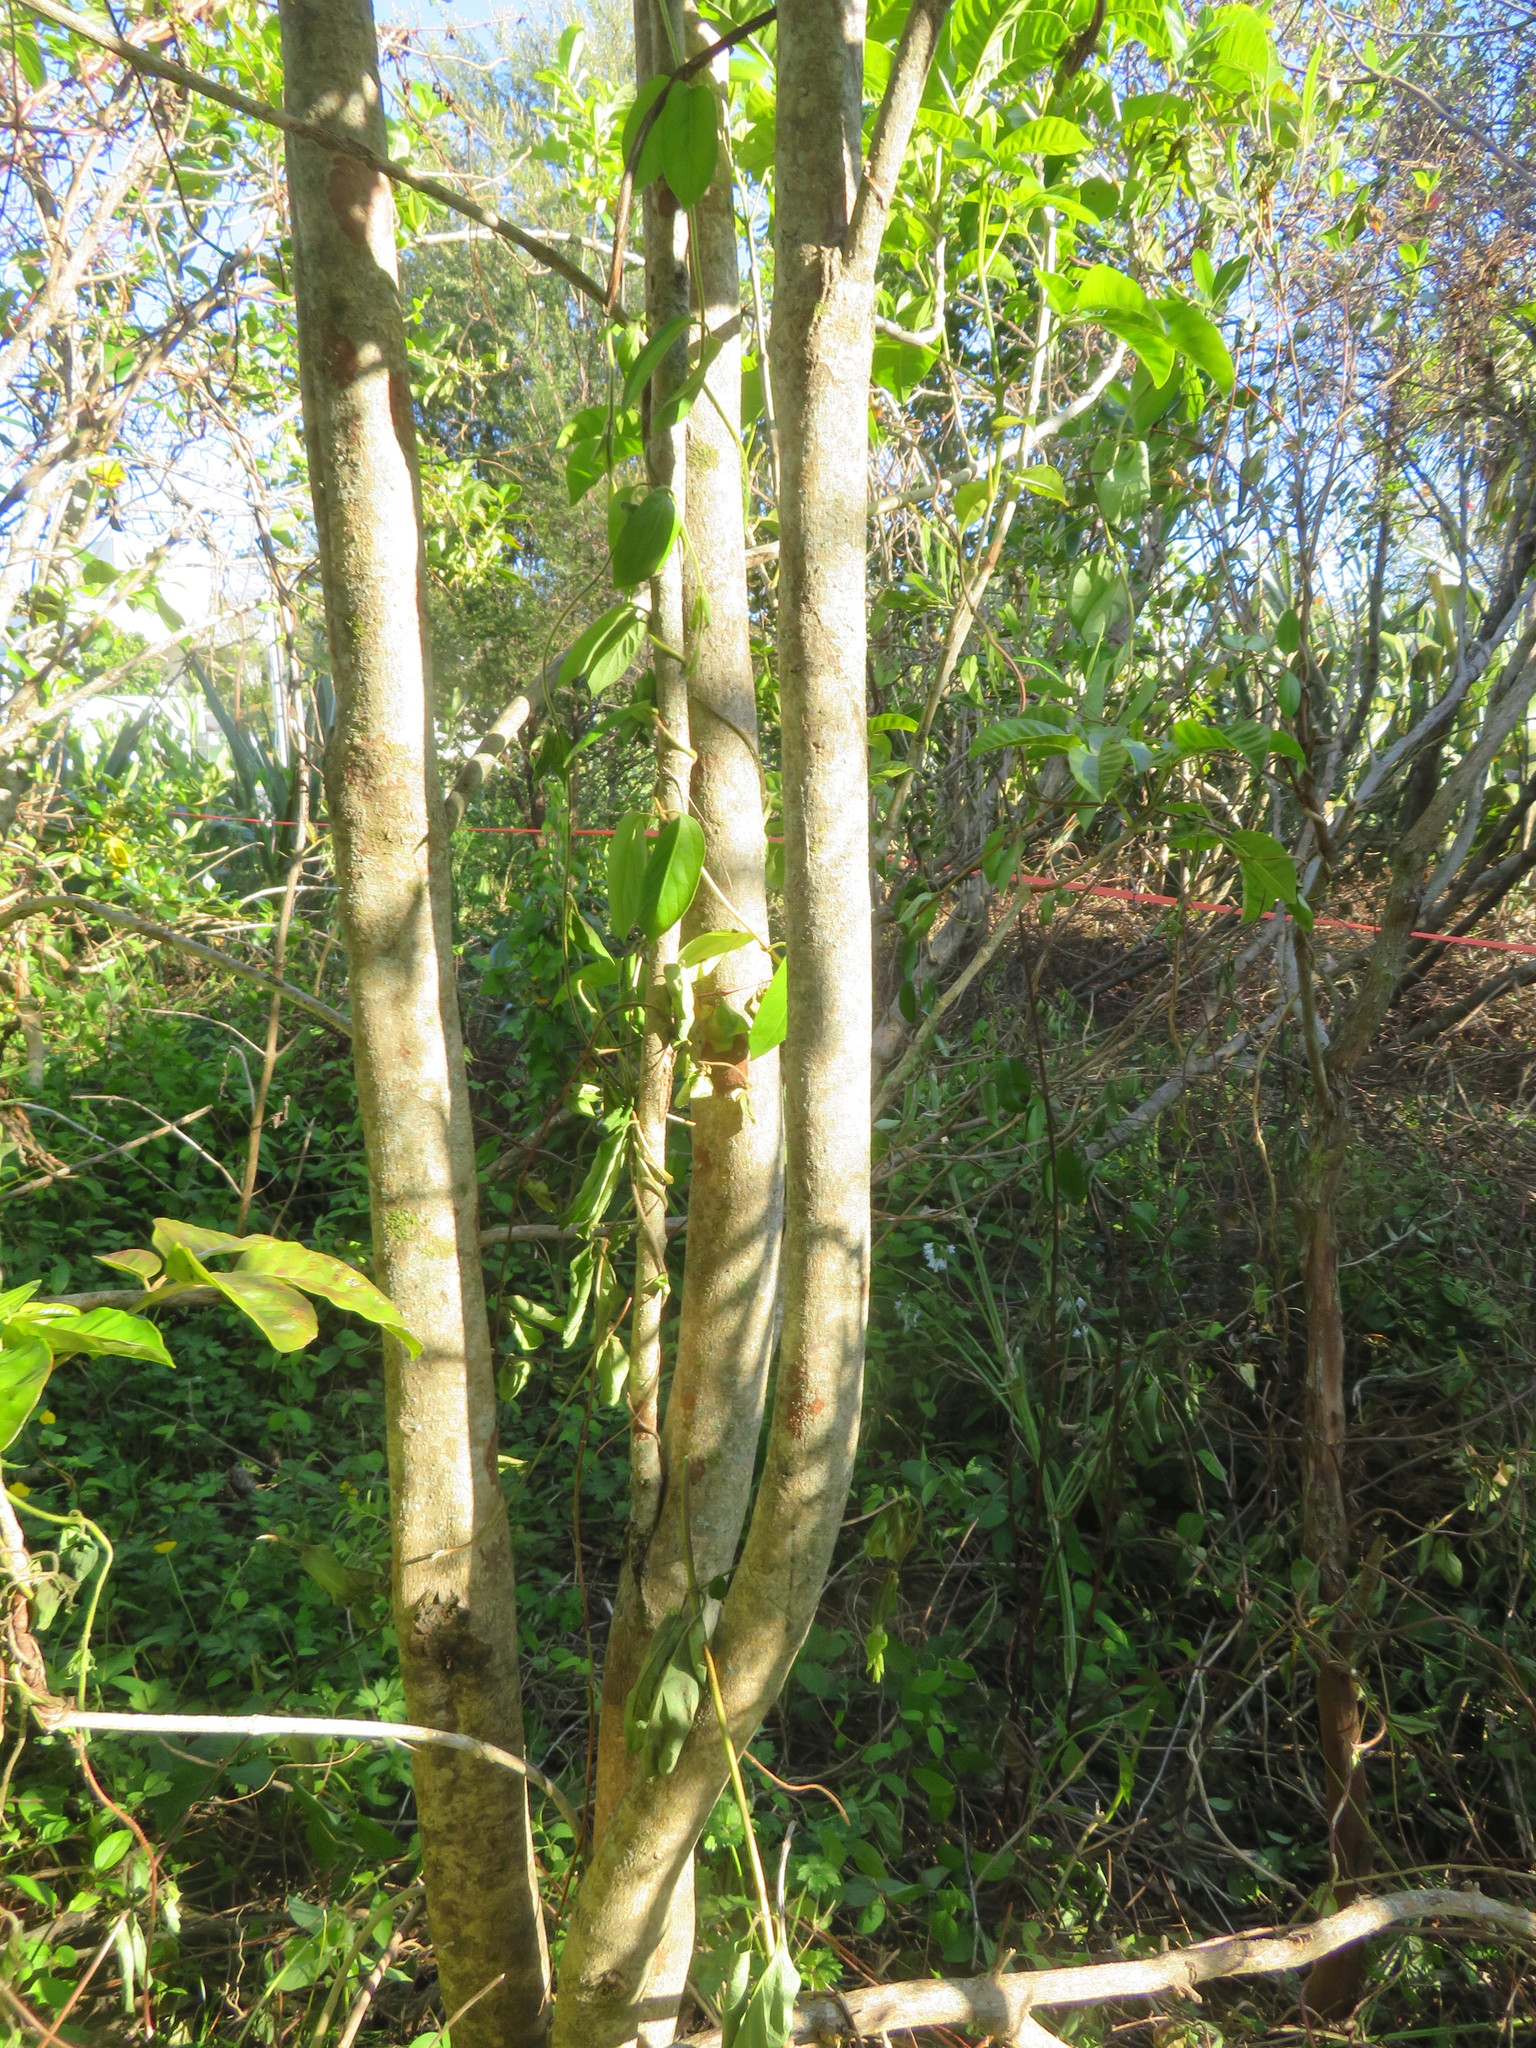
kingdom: Plantae
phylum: Tracheophyta
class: Magnoliopsida
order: Lamiales
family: Lamiaceae
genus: Vitex
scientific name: Vitex lucens
